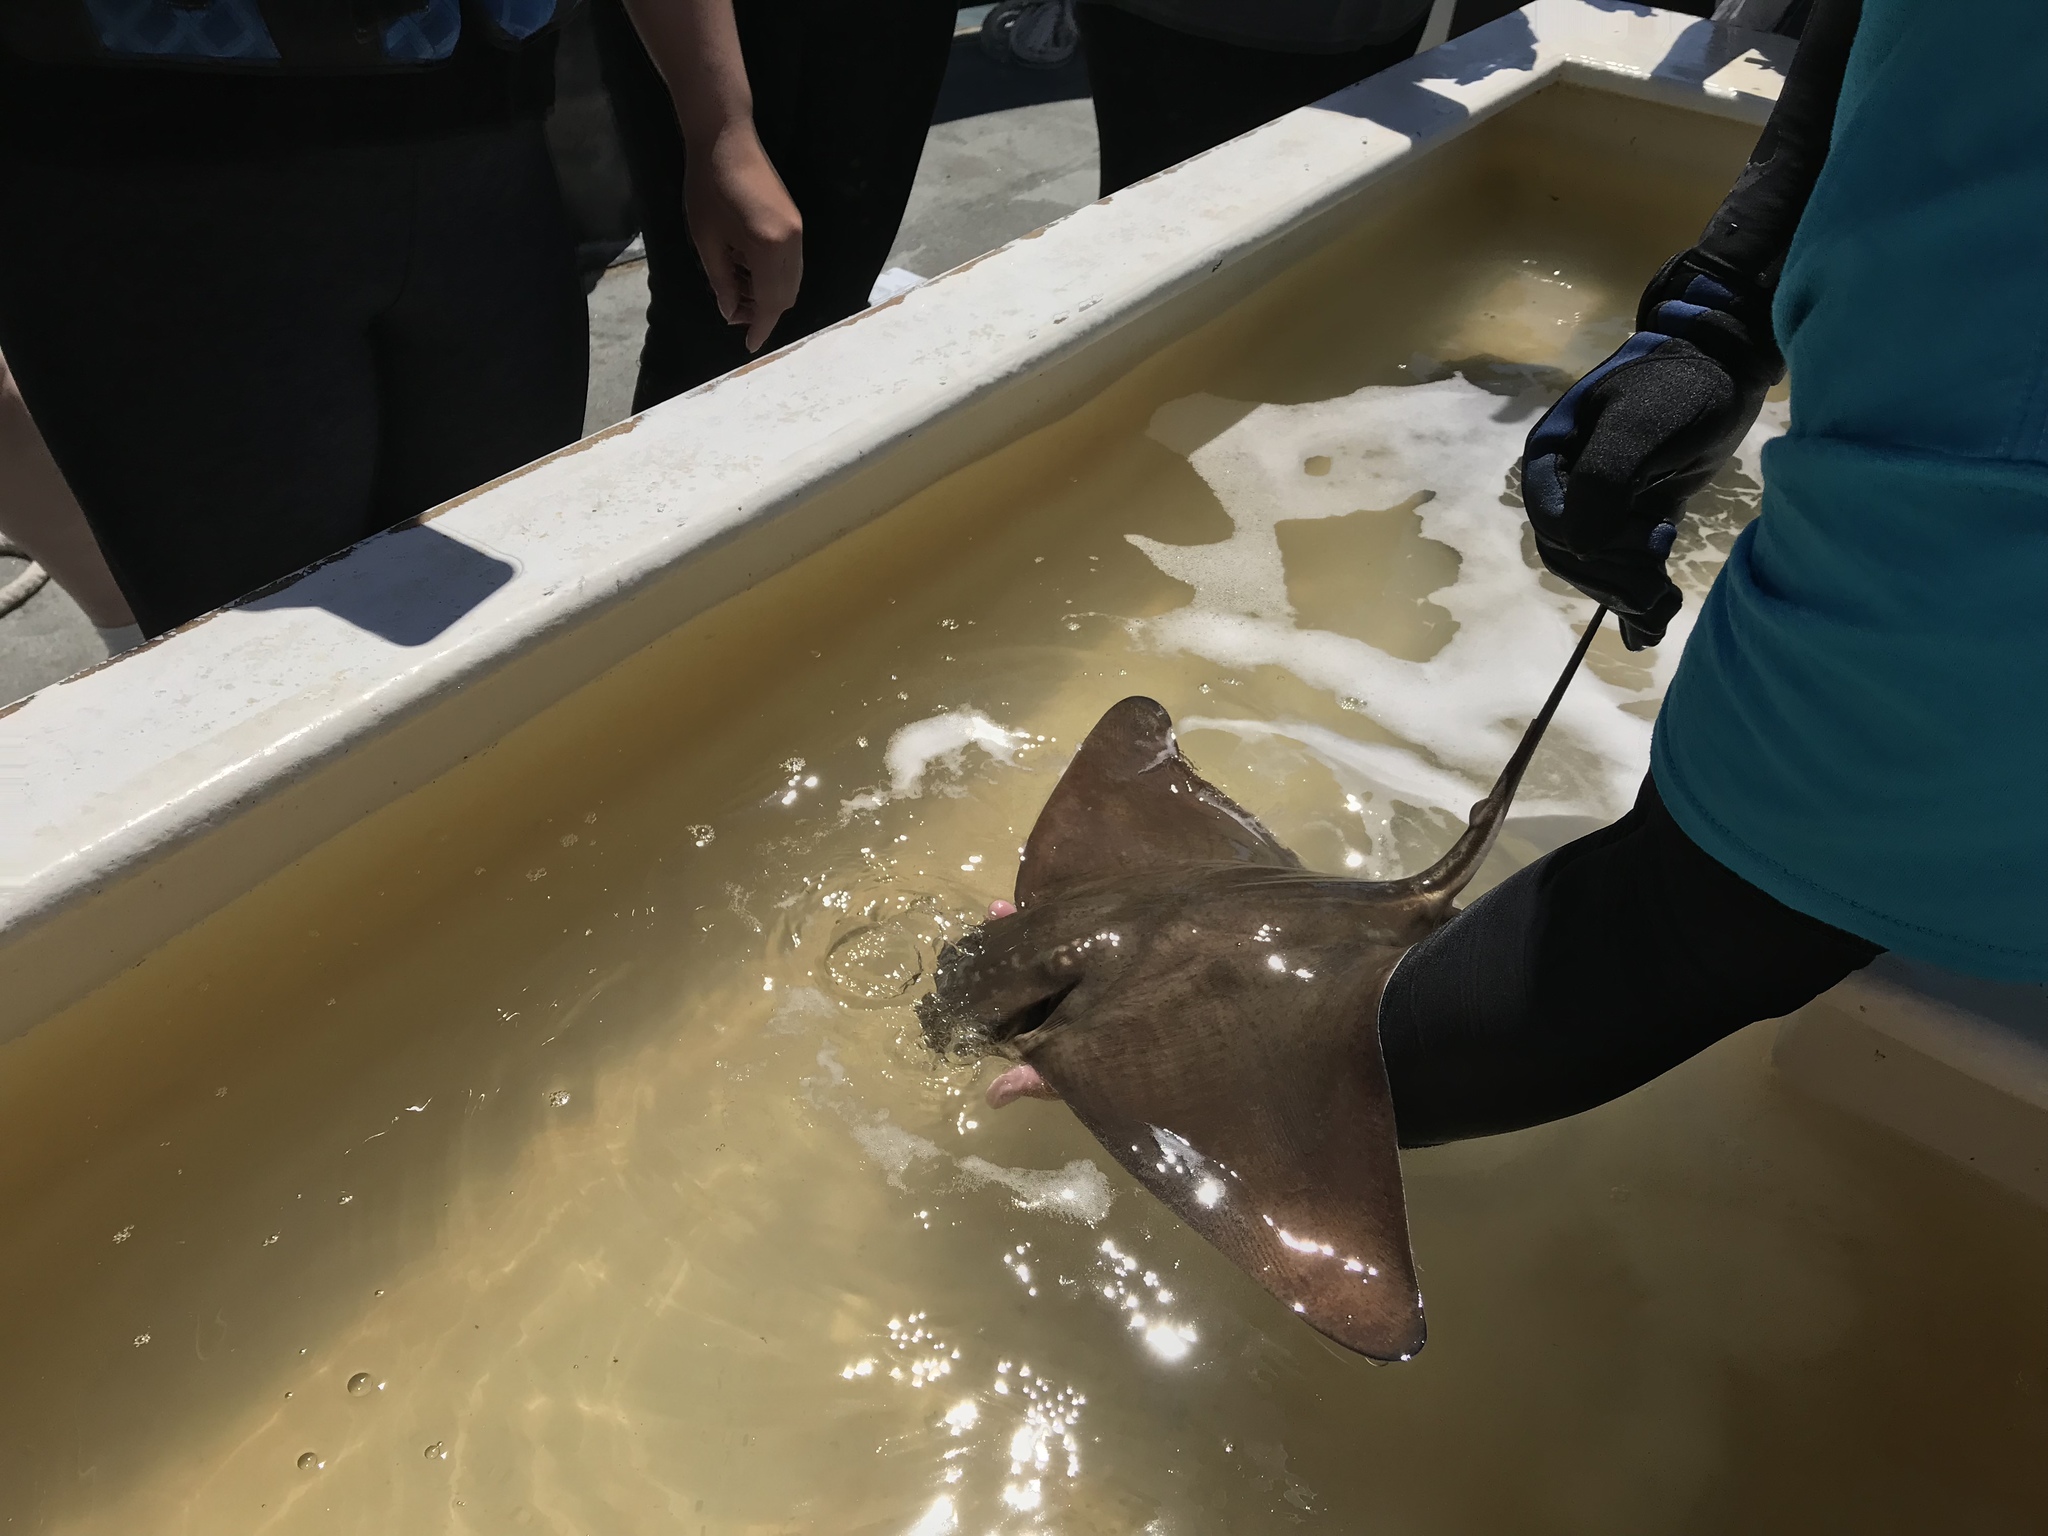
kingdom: Animalia
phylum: Chordata
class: Elasmobranchii
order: Myliobatiformes
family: Myliobatidae
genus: Myliobatis
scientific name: Myliobatis californica
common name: Bat ray
